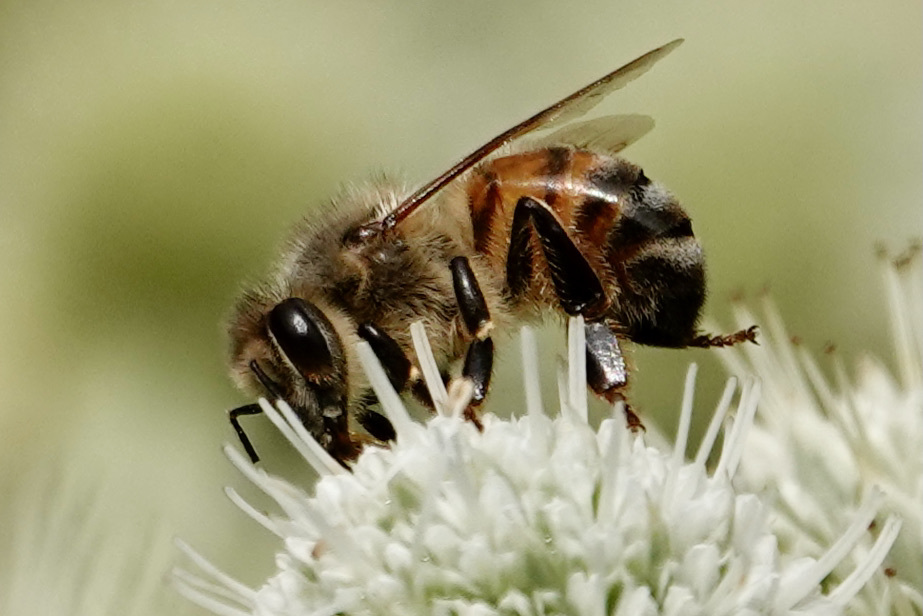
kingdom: Animalia
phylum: Arthropoda
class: Insecta
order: Hymenoptera
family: Apidae
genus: Apis
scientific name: Apis mellifera
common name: Honey bee
